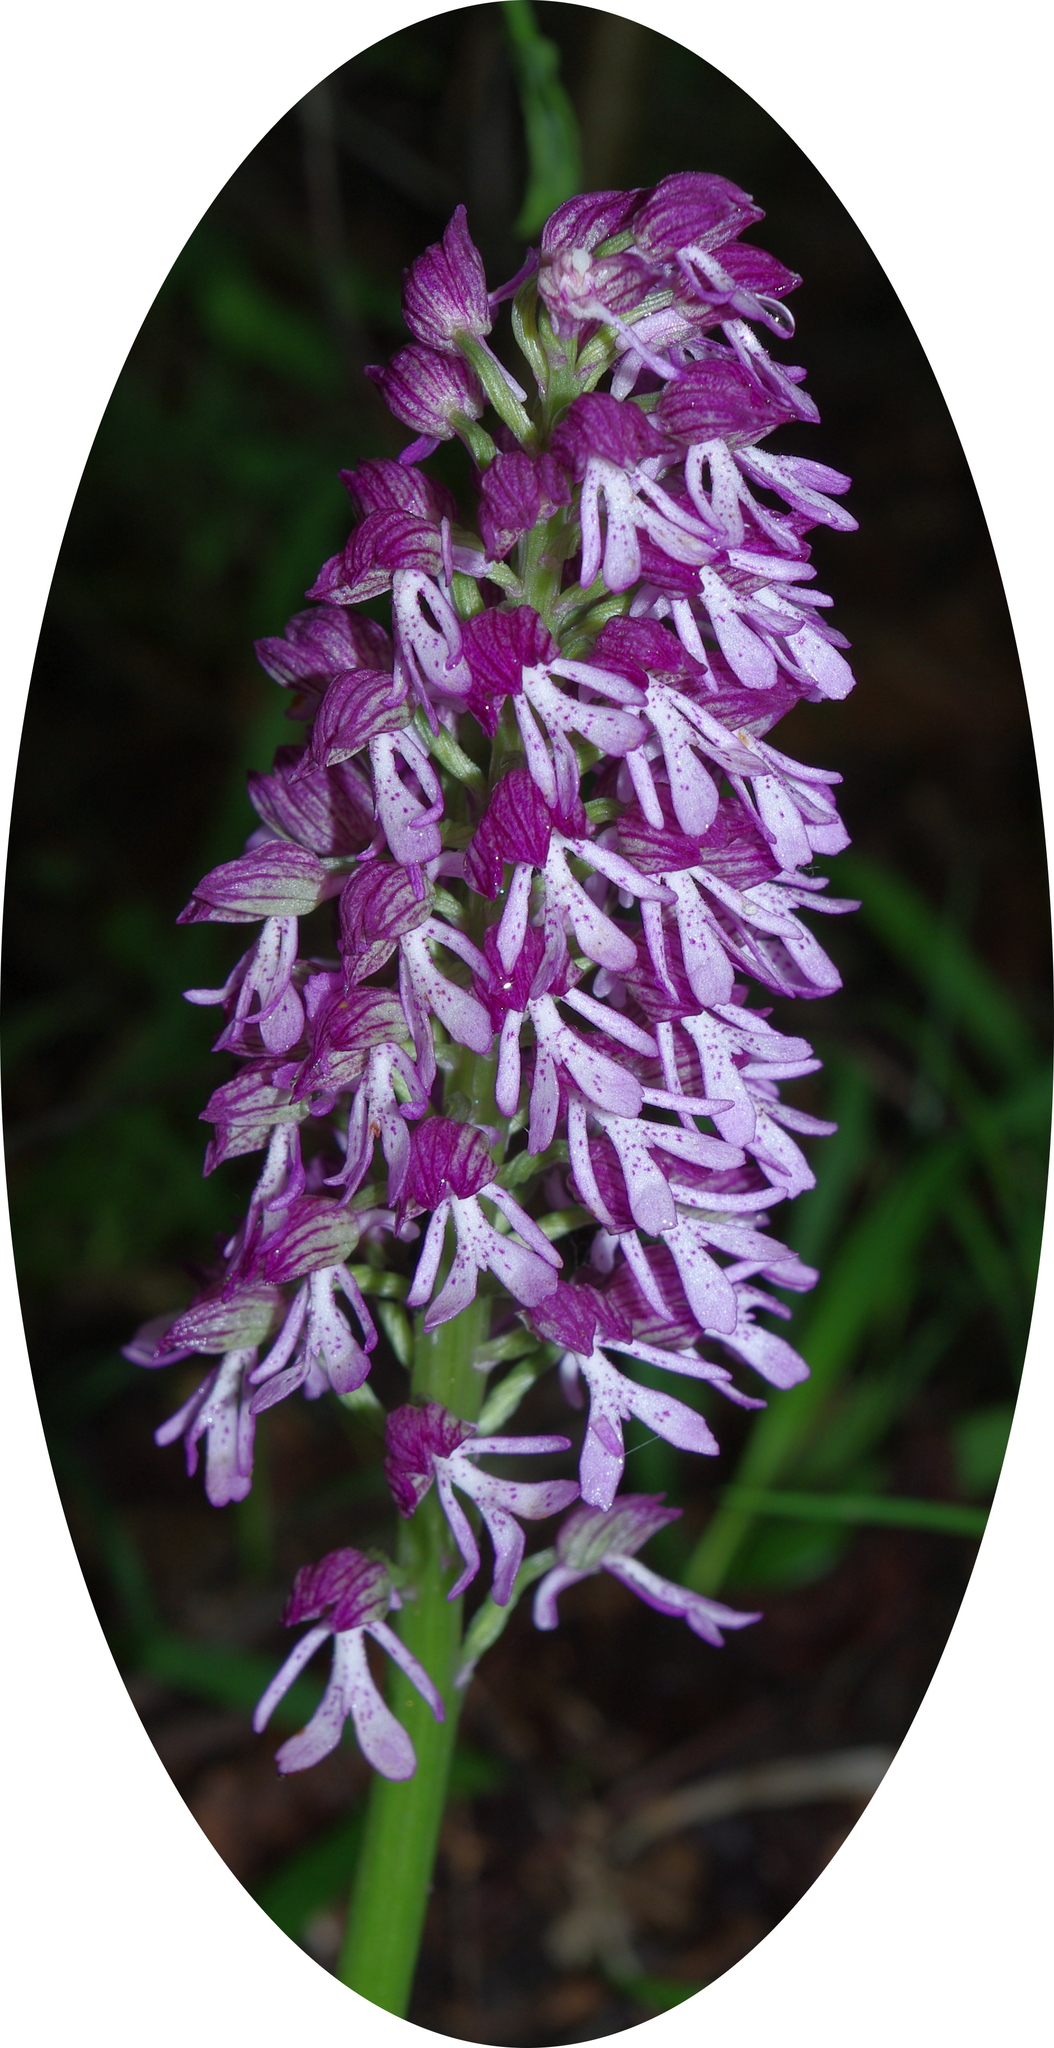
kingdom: Plantae
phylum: Tracheophyta
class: Liliopsida
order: Asparagales
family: Orchidaceae
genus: Orchis
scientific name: Orchis purpurea
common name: Lady orchid
